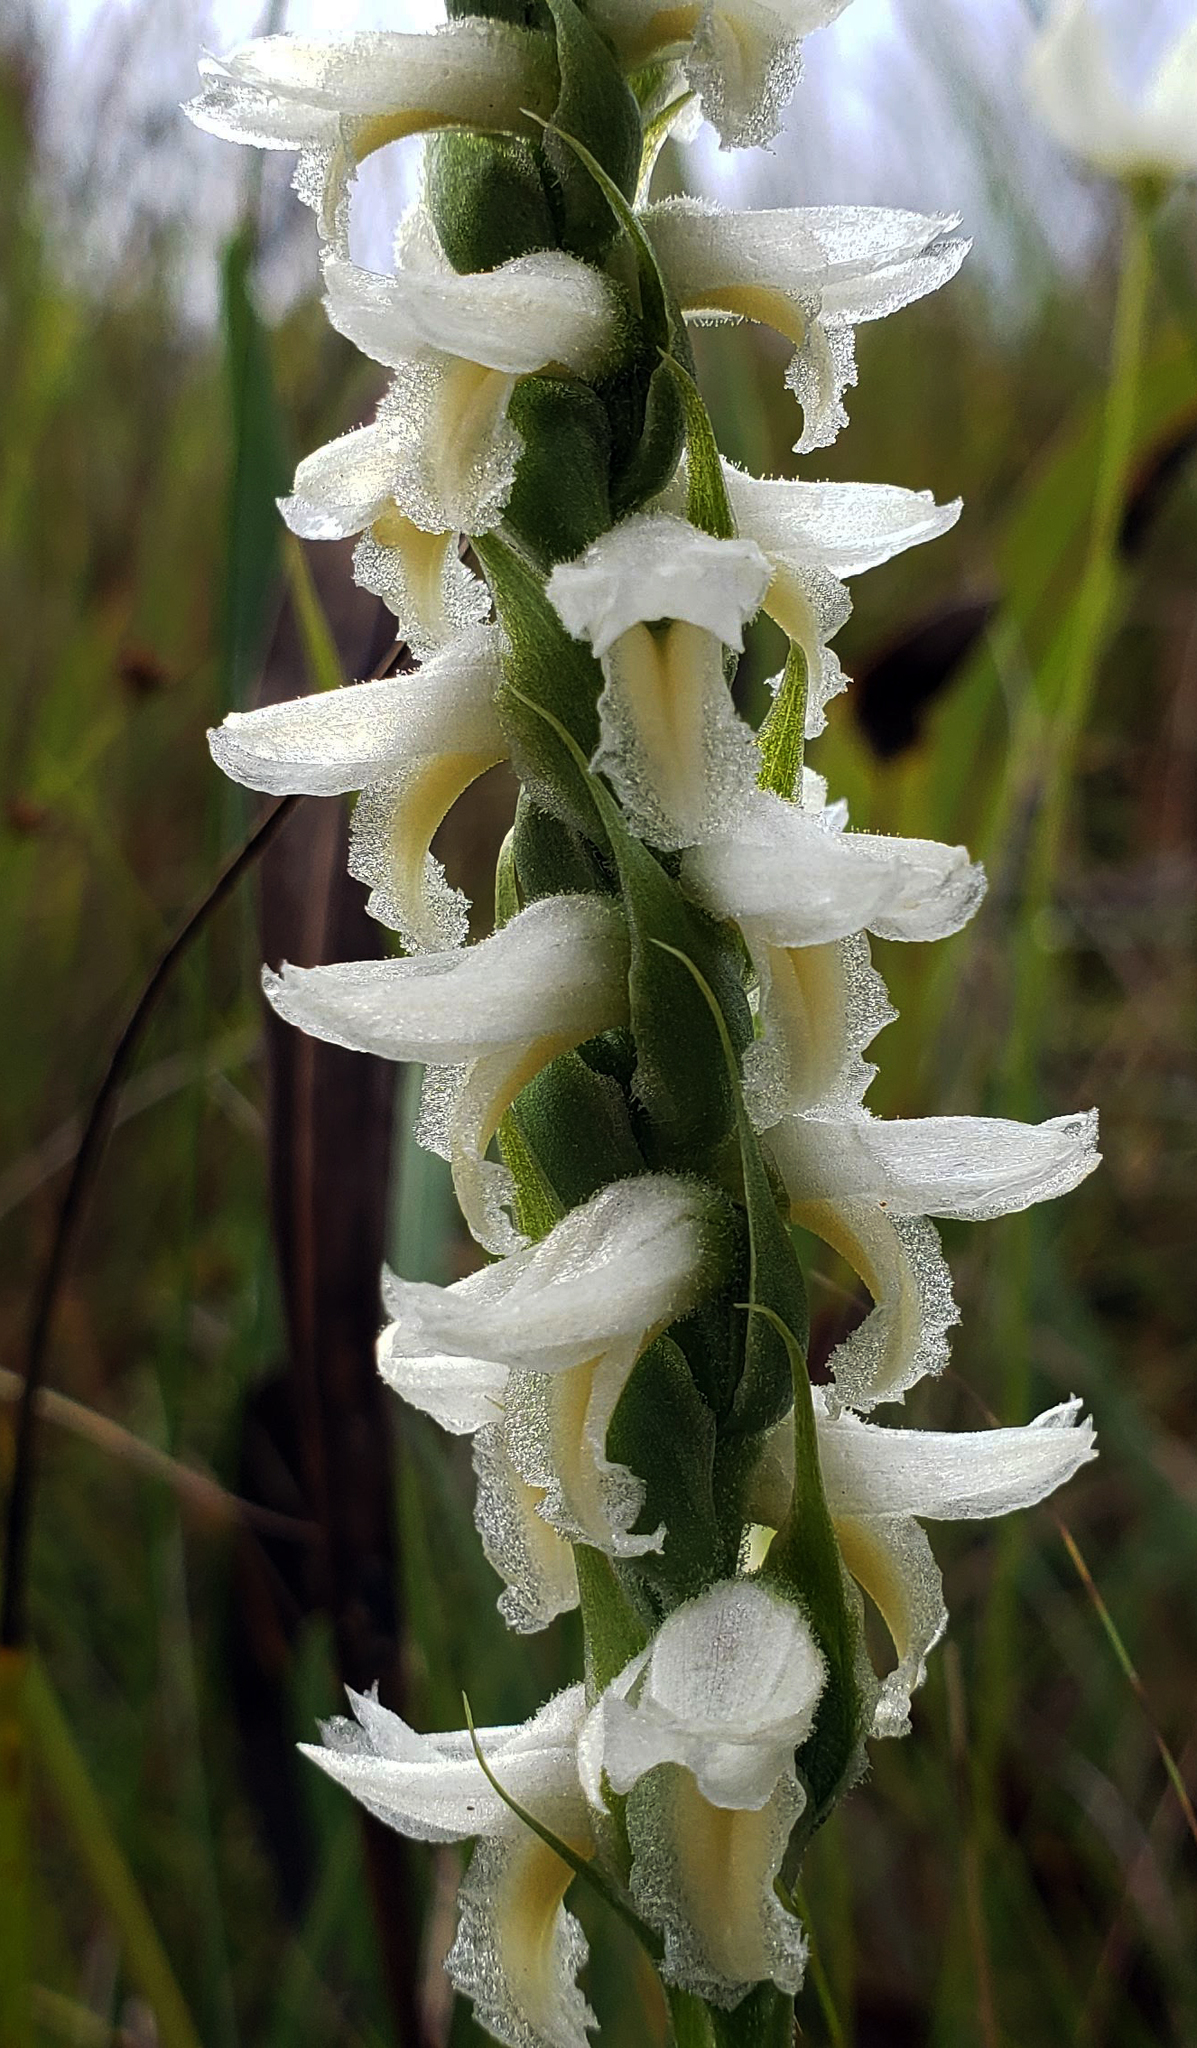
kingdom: Plantae
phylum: Tracheophyta
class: Liliopsida
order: Asparagales
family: Orchidaceae
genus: Spiranthes
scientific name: Spiranthes magnicamporum
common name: Great plains ladies'-tresses
